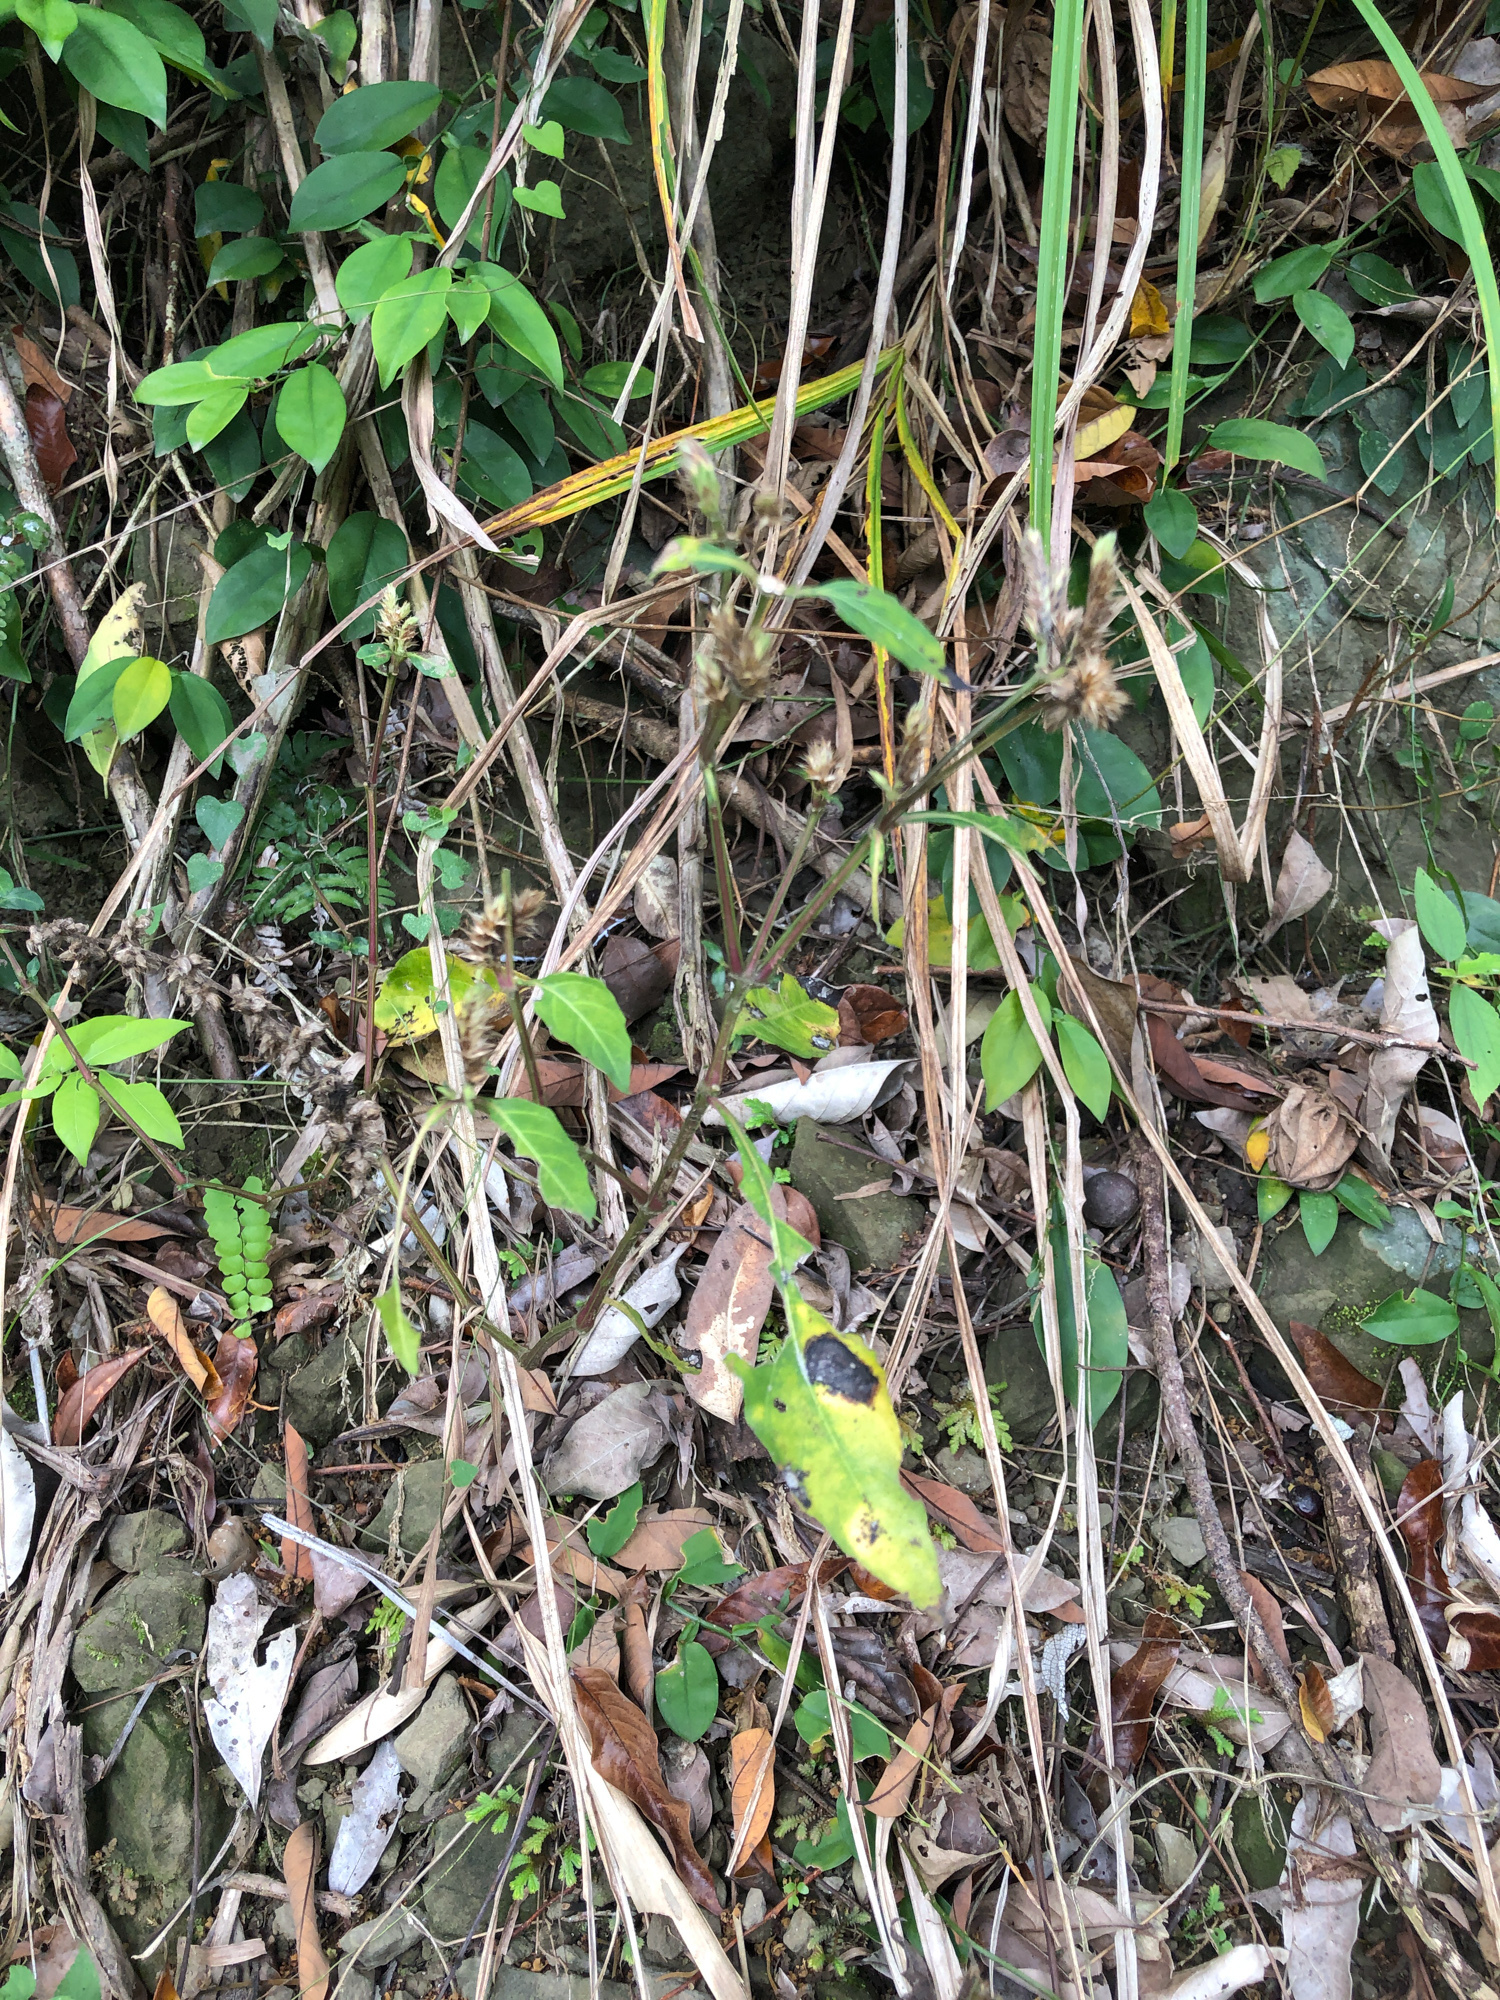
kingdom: Plantae
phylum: Tracheophyta
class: Magnoliopsida
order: Lamiales
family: Acanthaceae
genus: Lepidagathis
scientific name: Lepidagathis formosensis
